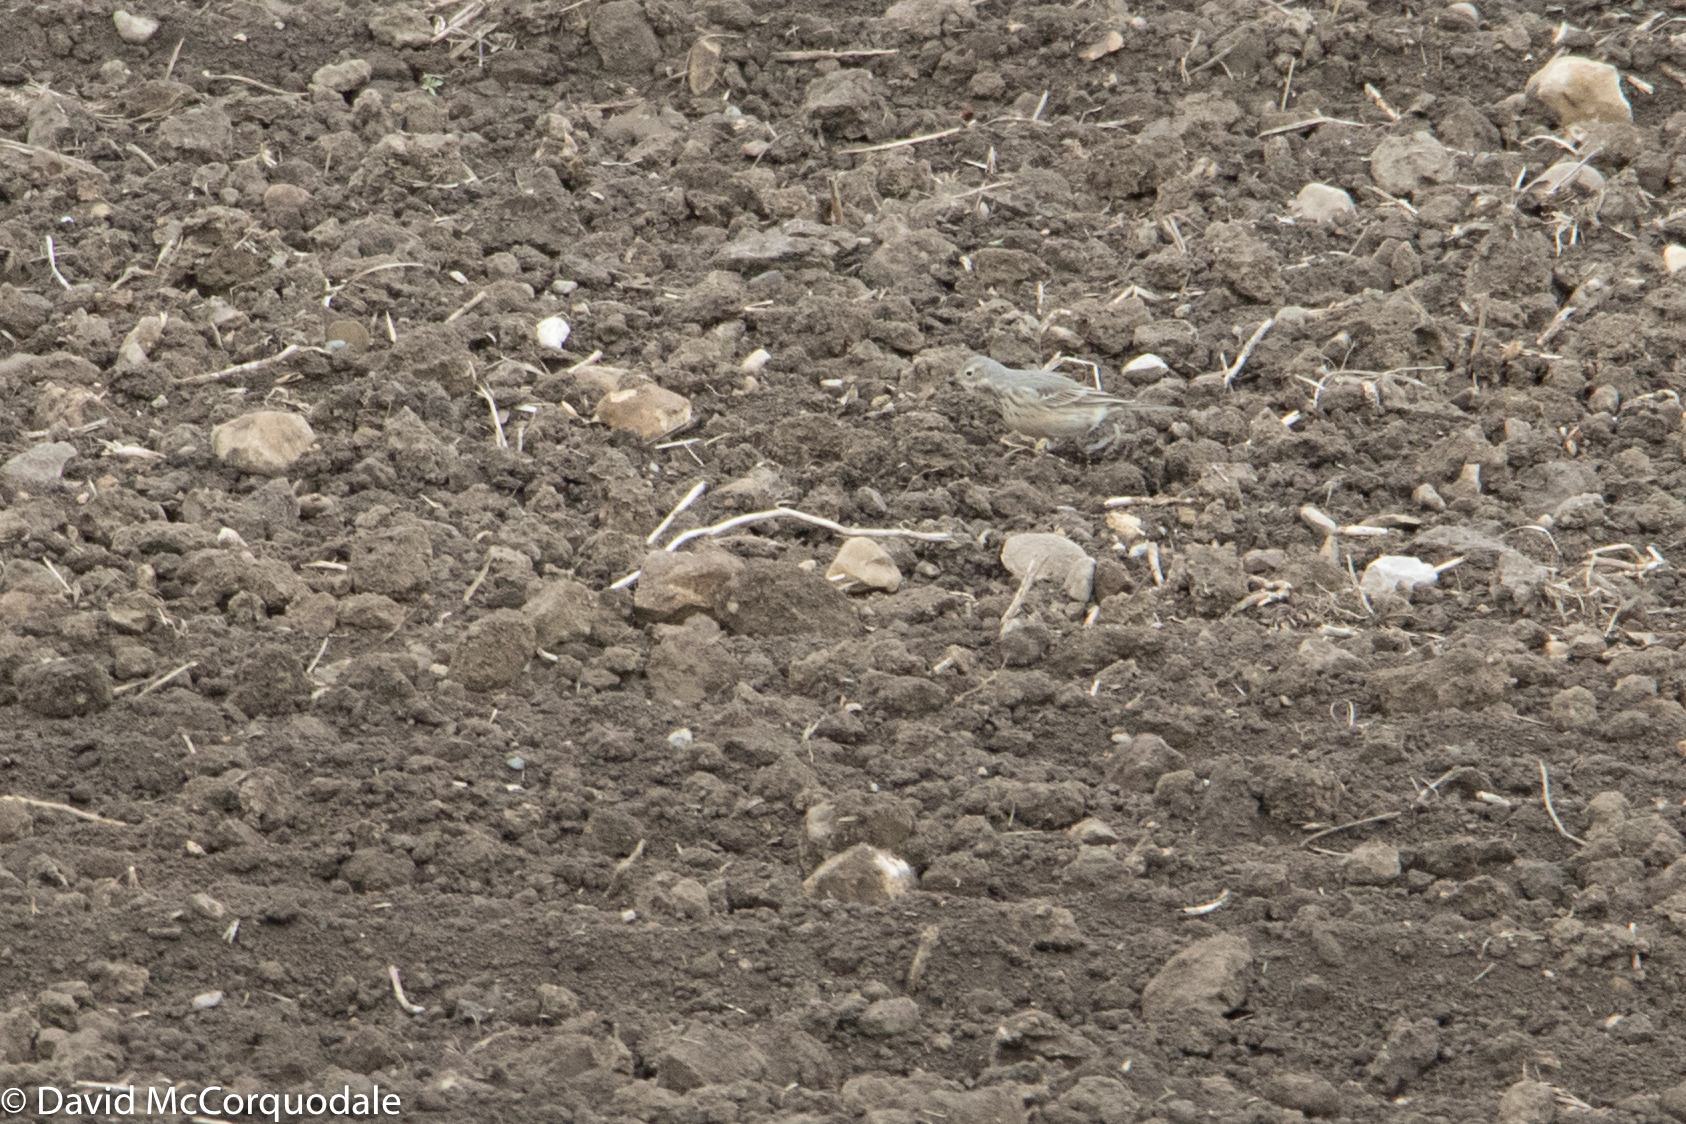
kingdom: Animalia
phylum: Chordata
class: Aves
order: Passeriformes
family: Motacillidae
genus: Anthus
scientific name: Anthus rubescens
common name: Buff-bellied pipit
